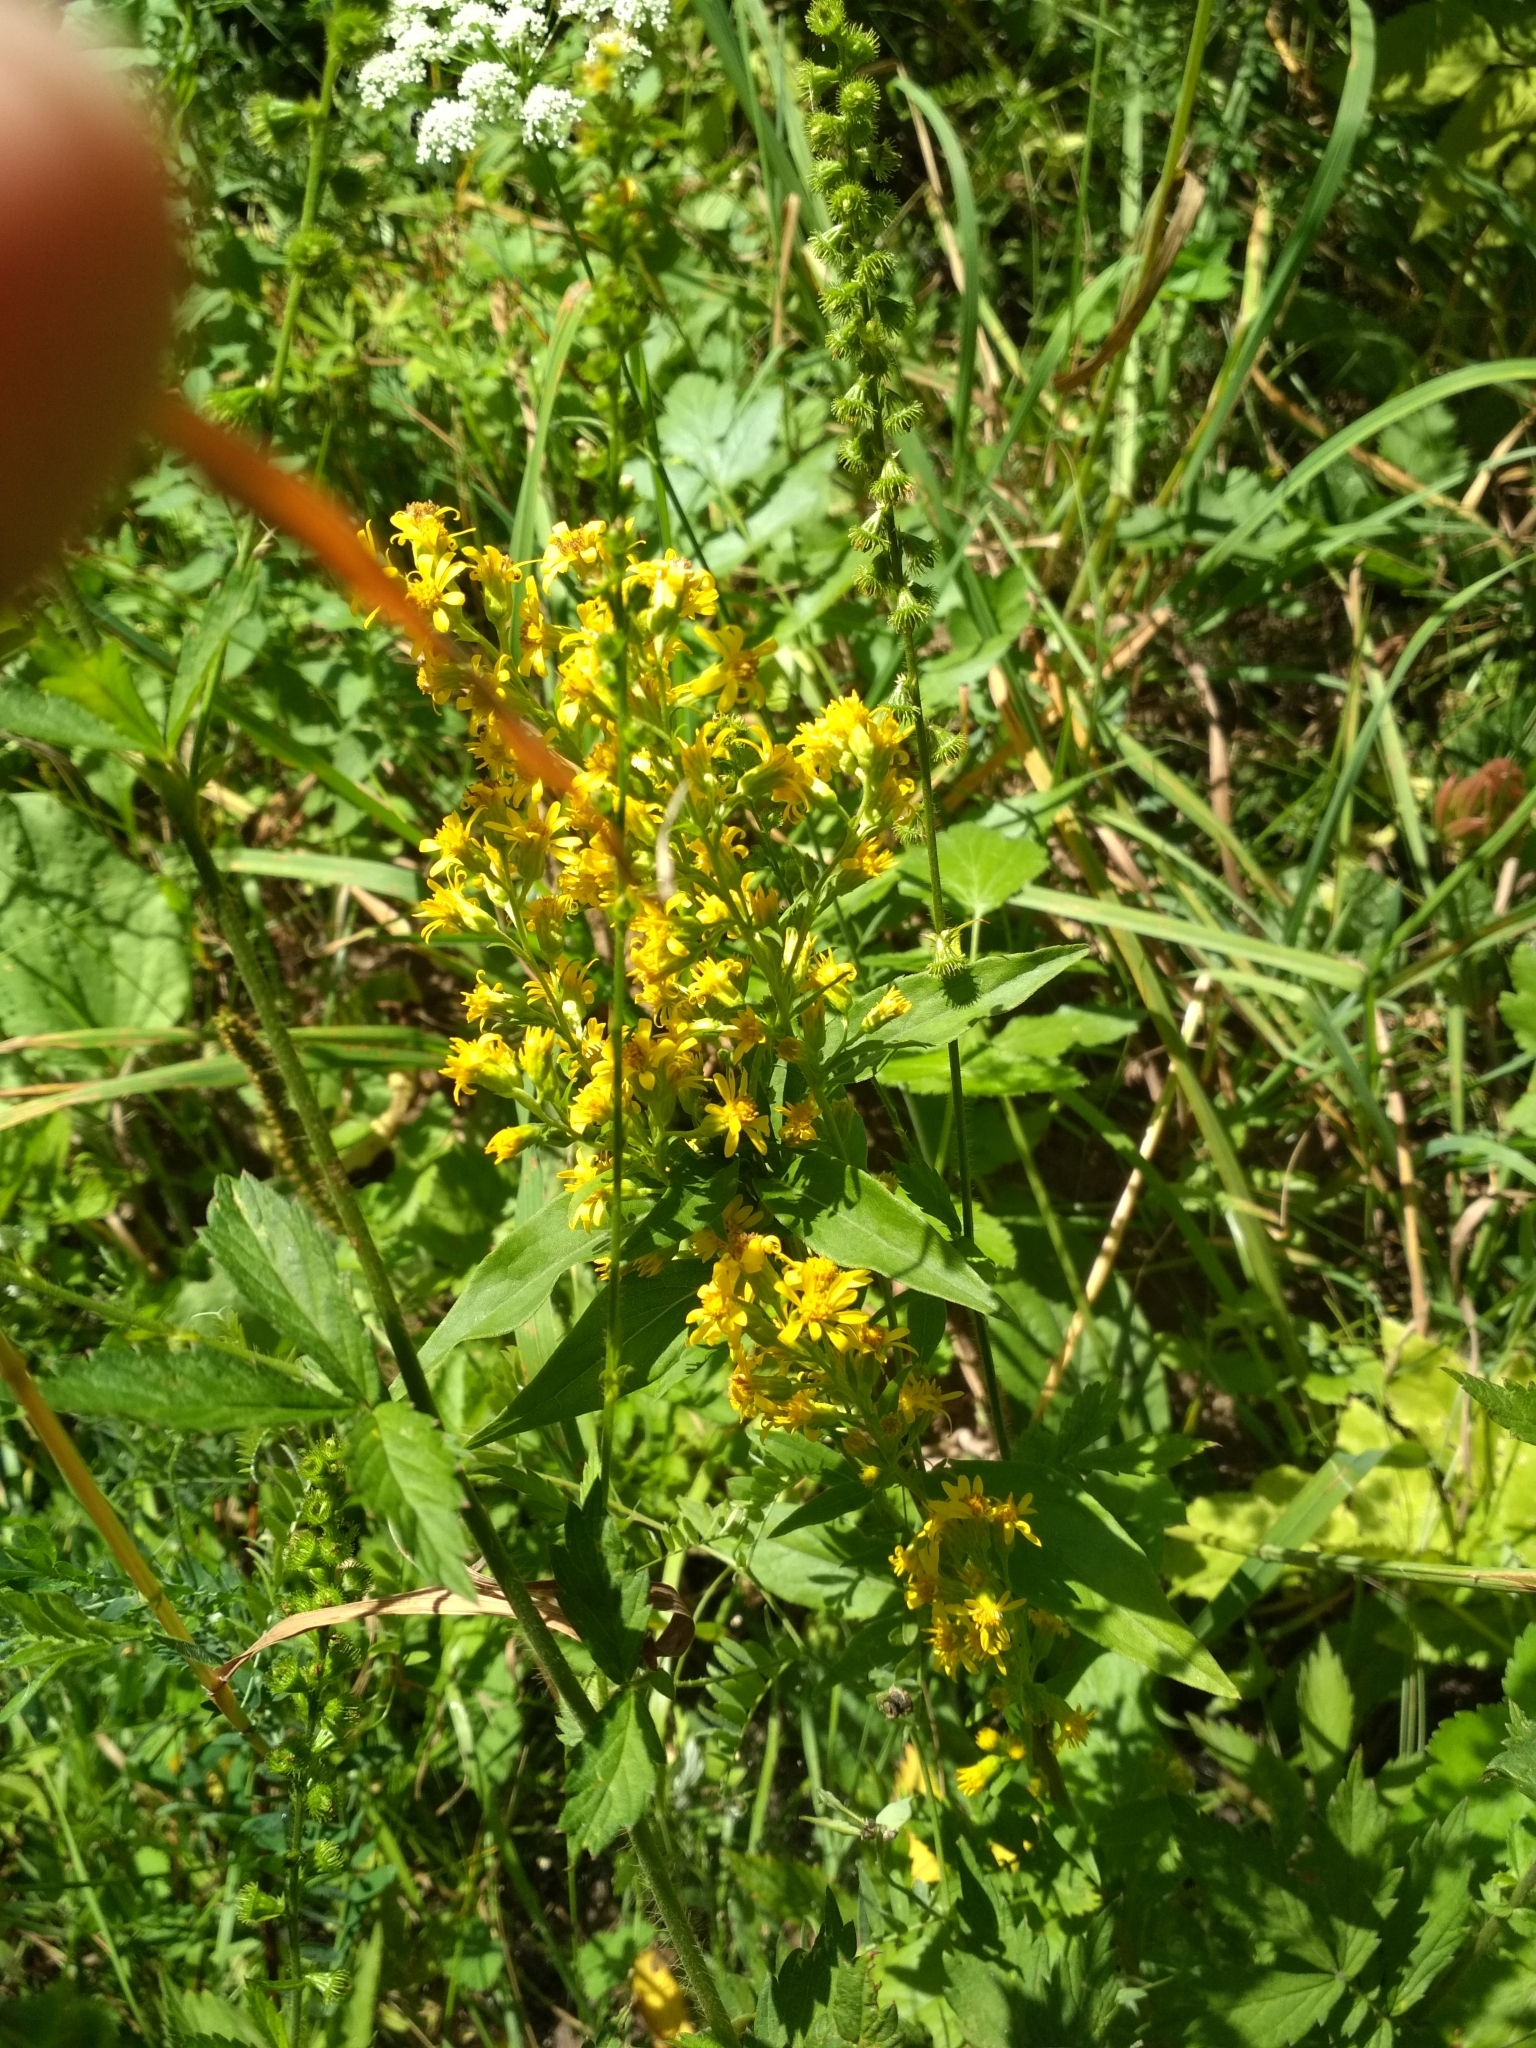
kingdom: Plantae
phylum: Tracheophyta
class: Magnoliopsida
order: Asterales
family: Asteraceae
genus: Solidago
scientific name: Solidago virgaurea
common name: Goldenrod
